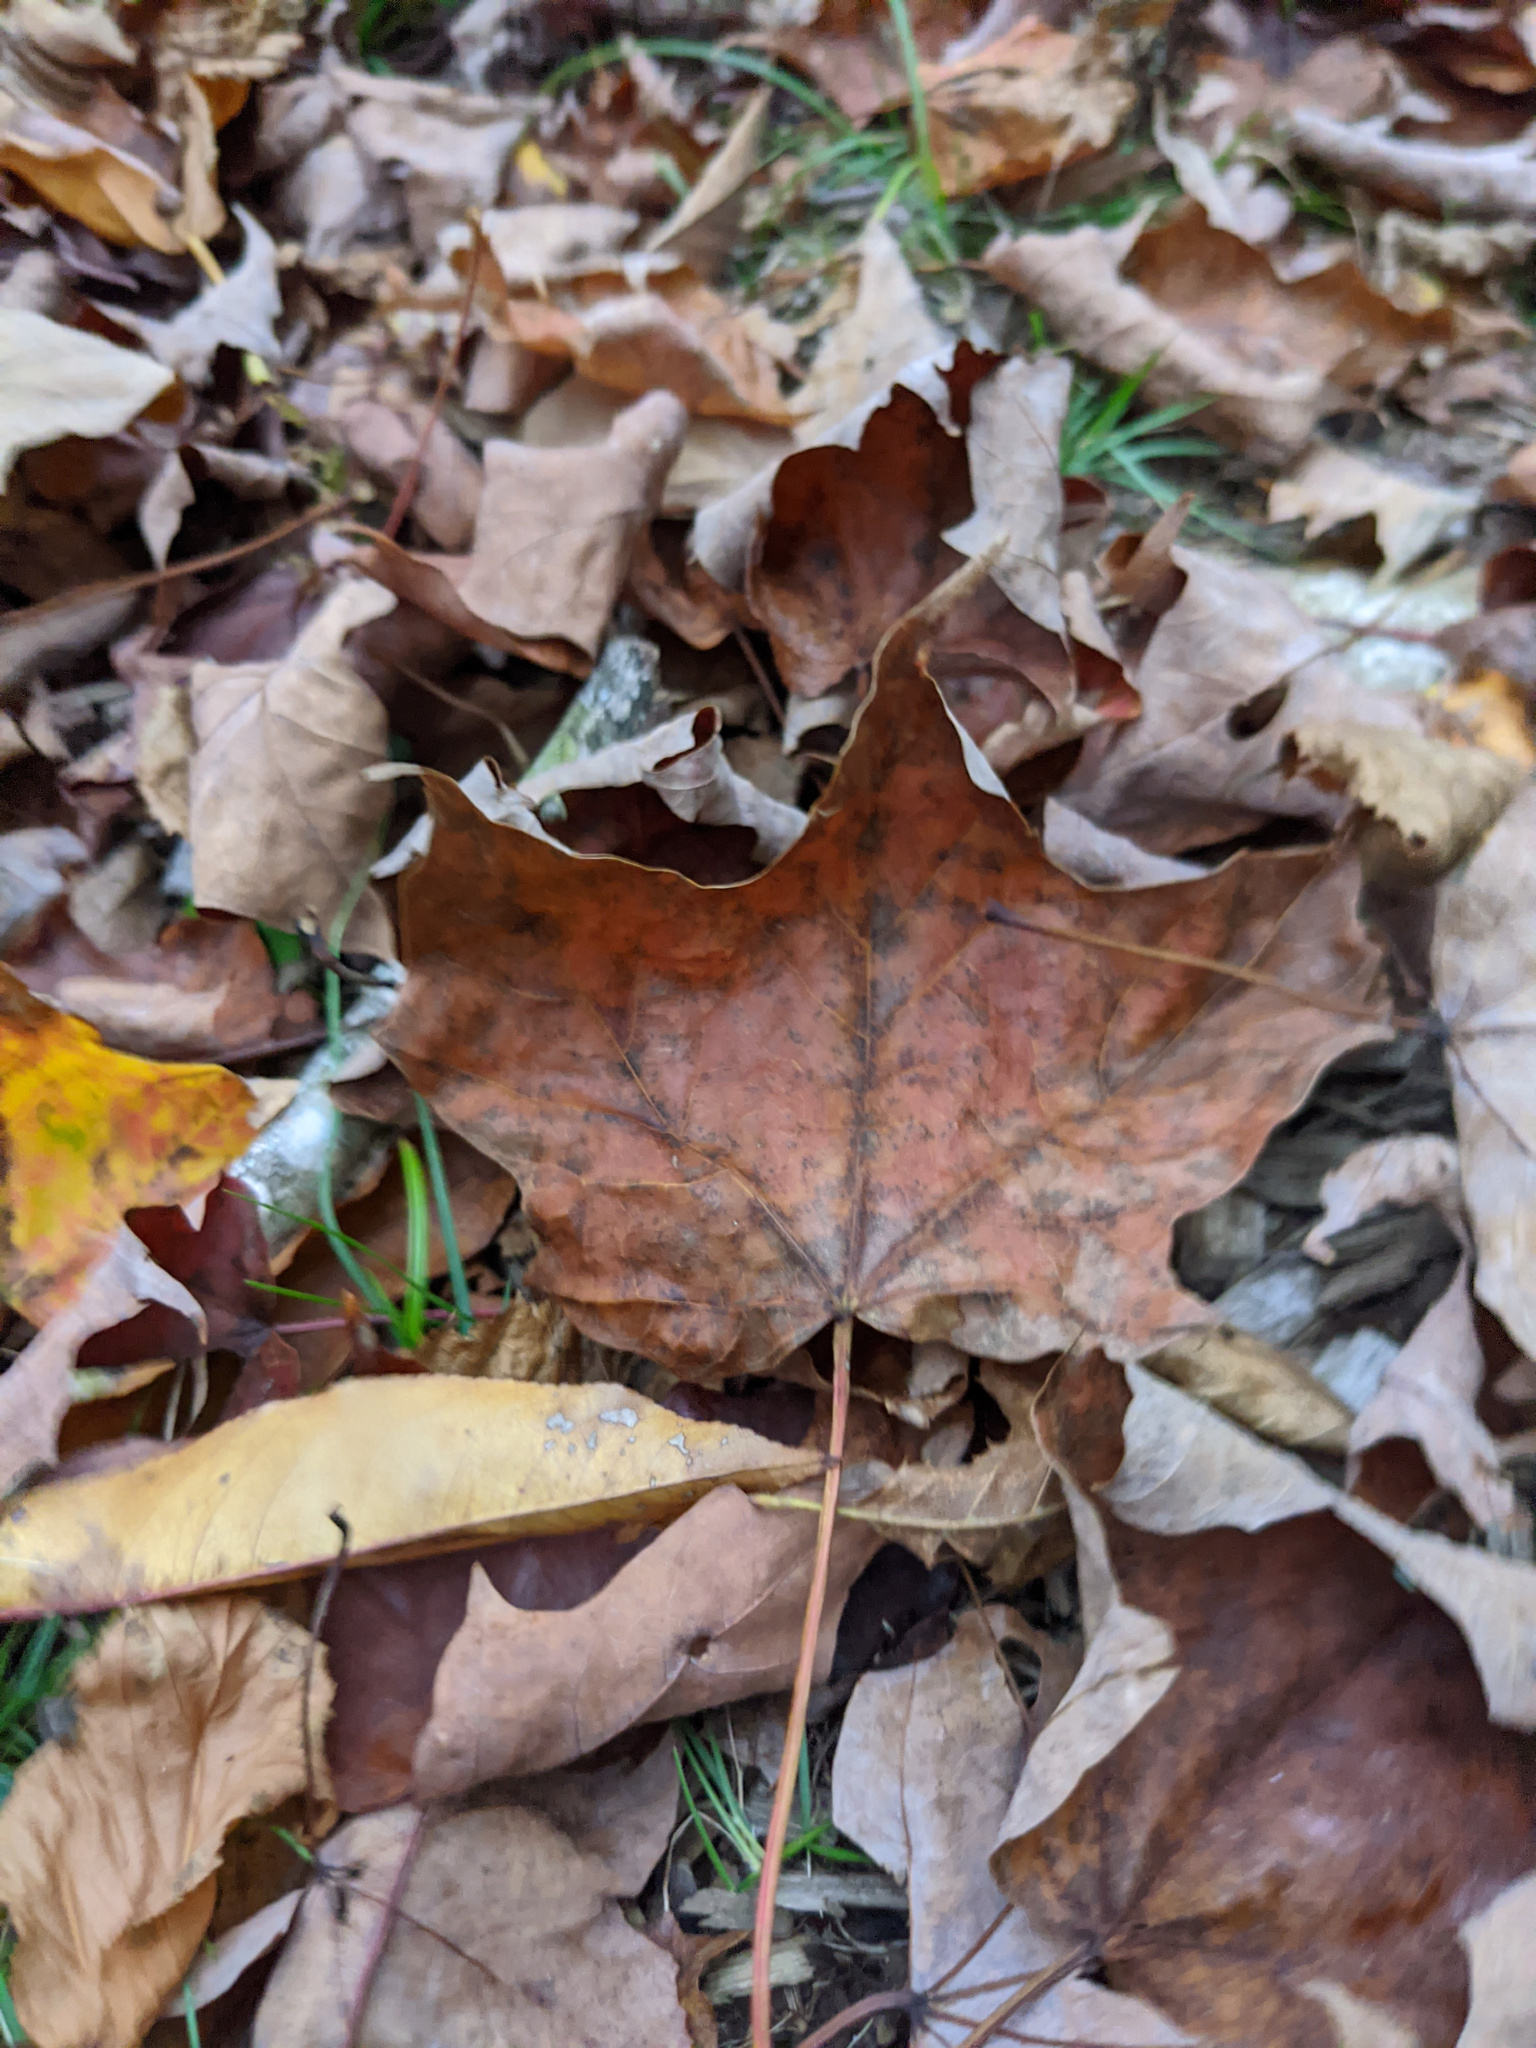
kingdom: Plantae
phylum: Tracheophyta
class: Magnoliopsida
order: Sapindales
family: Sapindaceae
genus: Acer
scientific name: Acer saccharum
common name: Sugar maple
